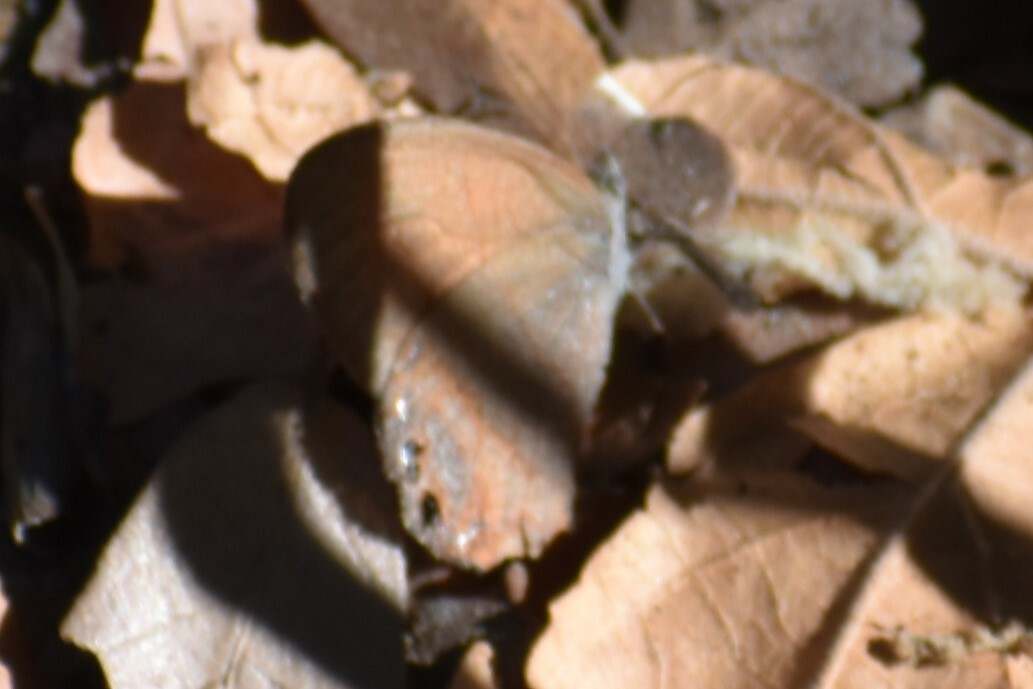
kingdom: Animalia
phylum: Arthropoda
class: Insecta
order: Lepidoptera
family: Nymphalidae
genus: Euptychia
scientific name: Euptychia pyracmon
